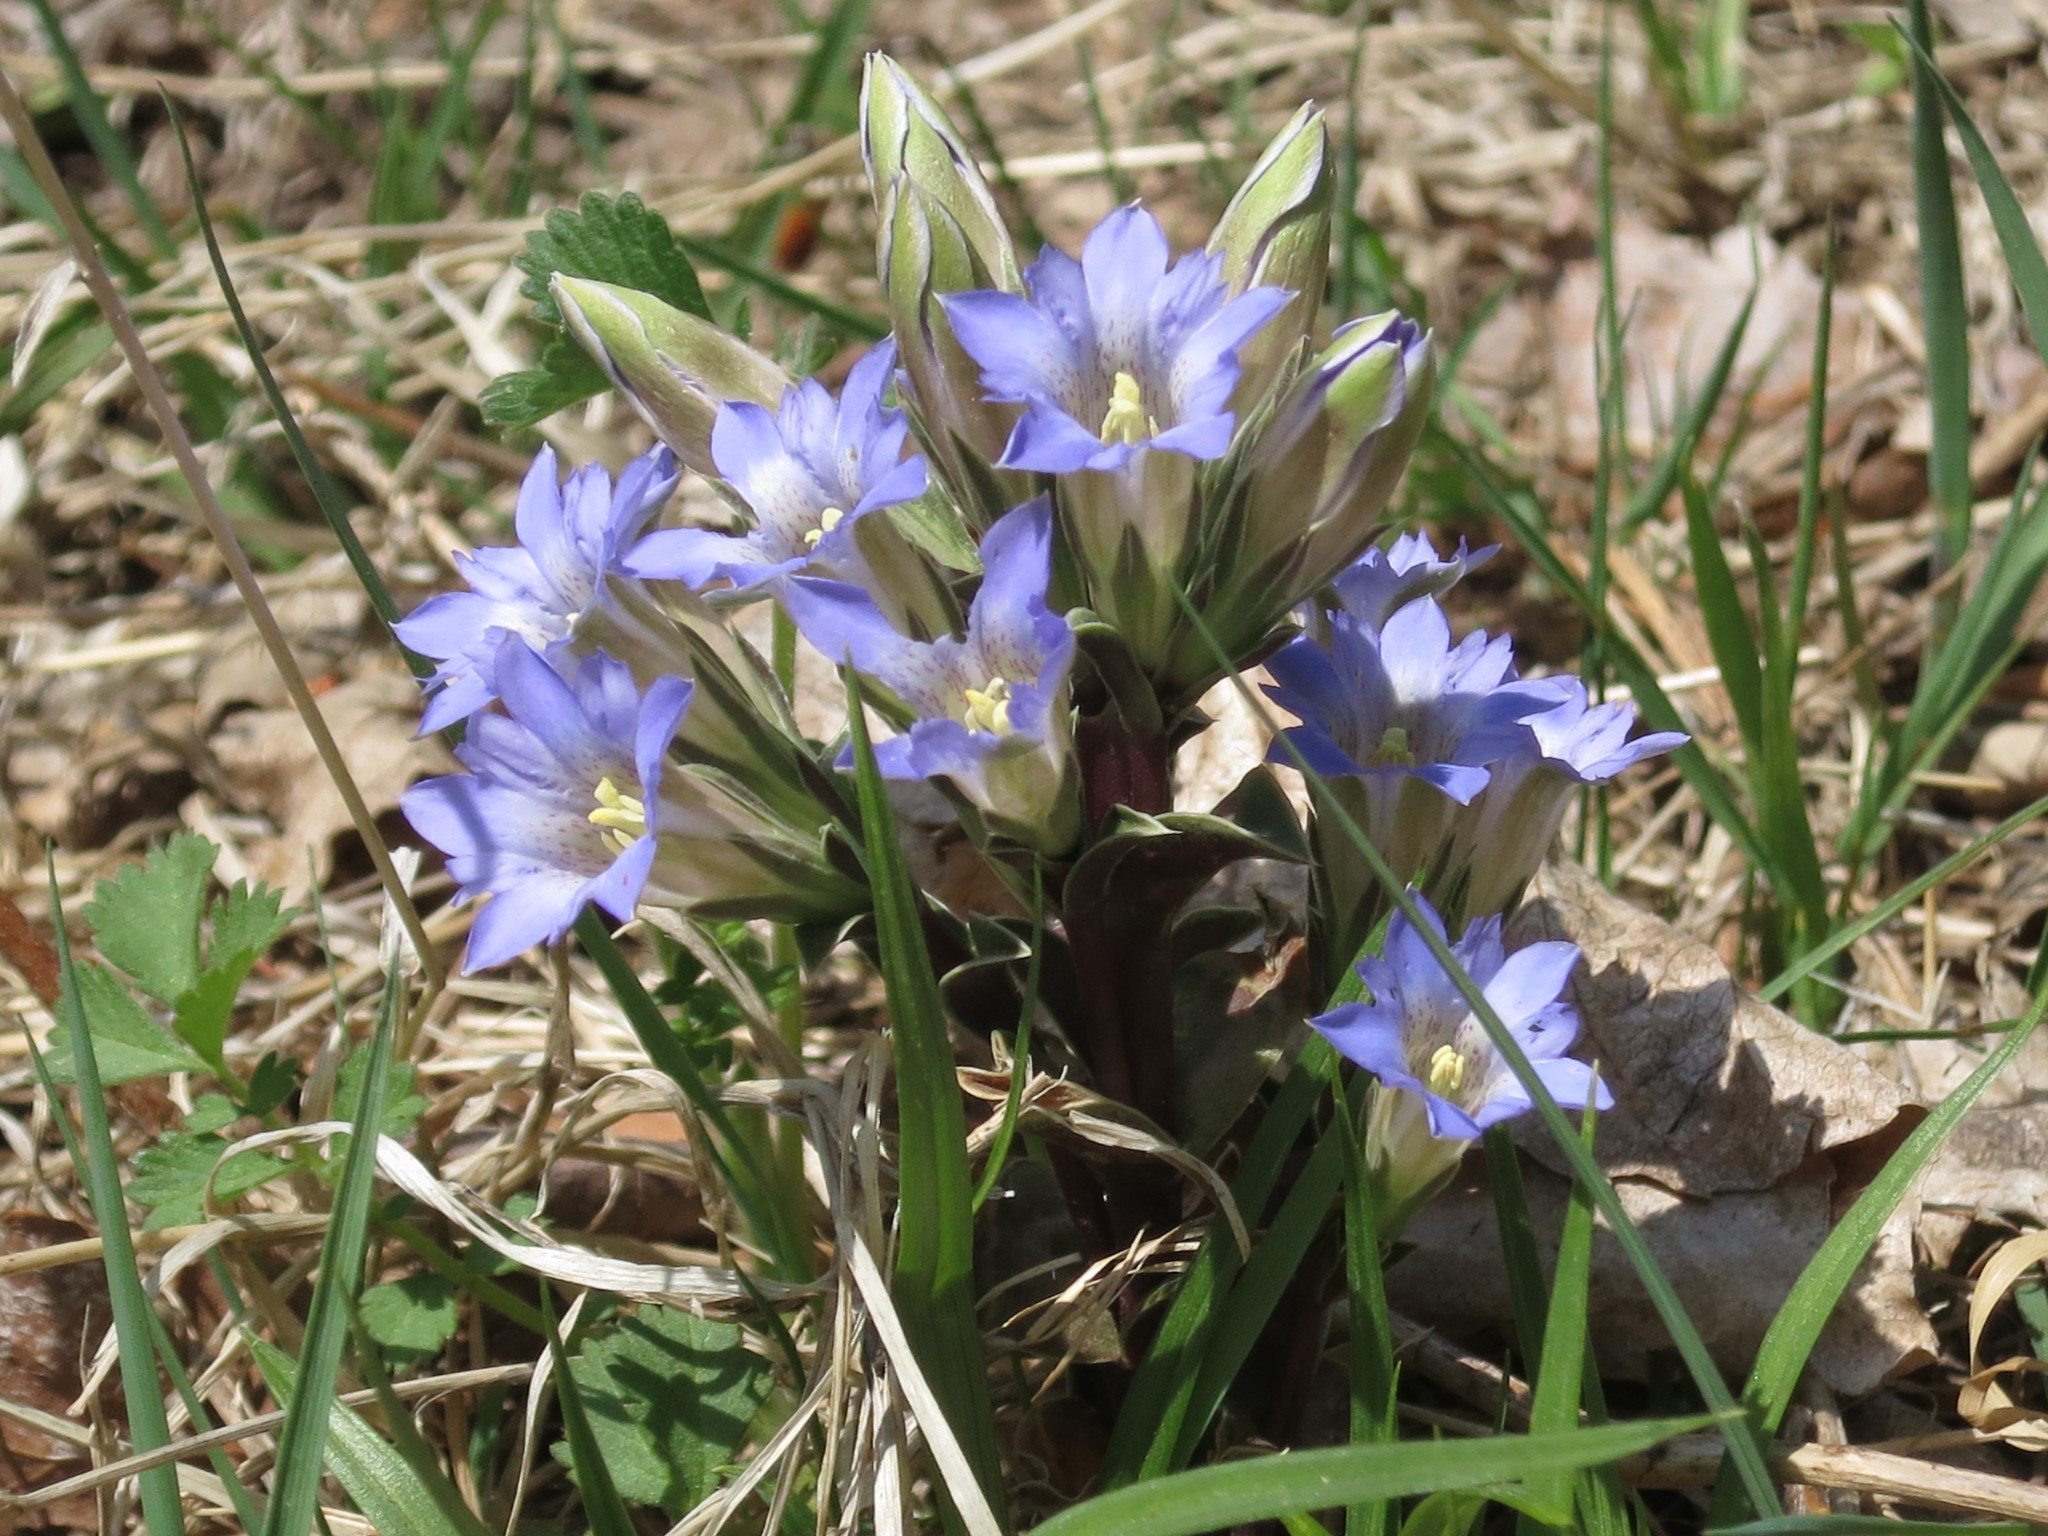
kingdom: Plantae
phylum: Tracheophyta
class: Magnoliopsida
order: Gentianales
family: Gentianaceae
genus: Gentiana
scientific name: Gentiana zollingeri
